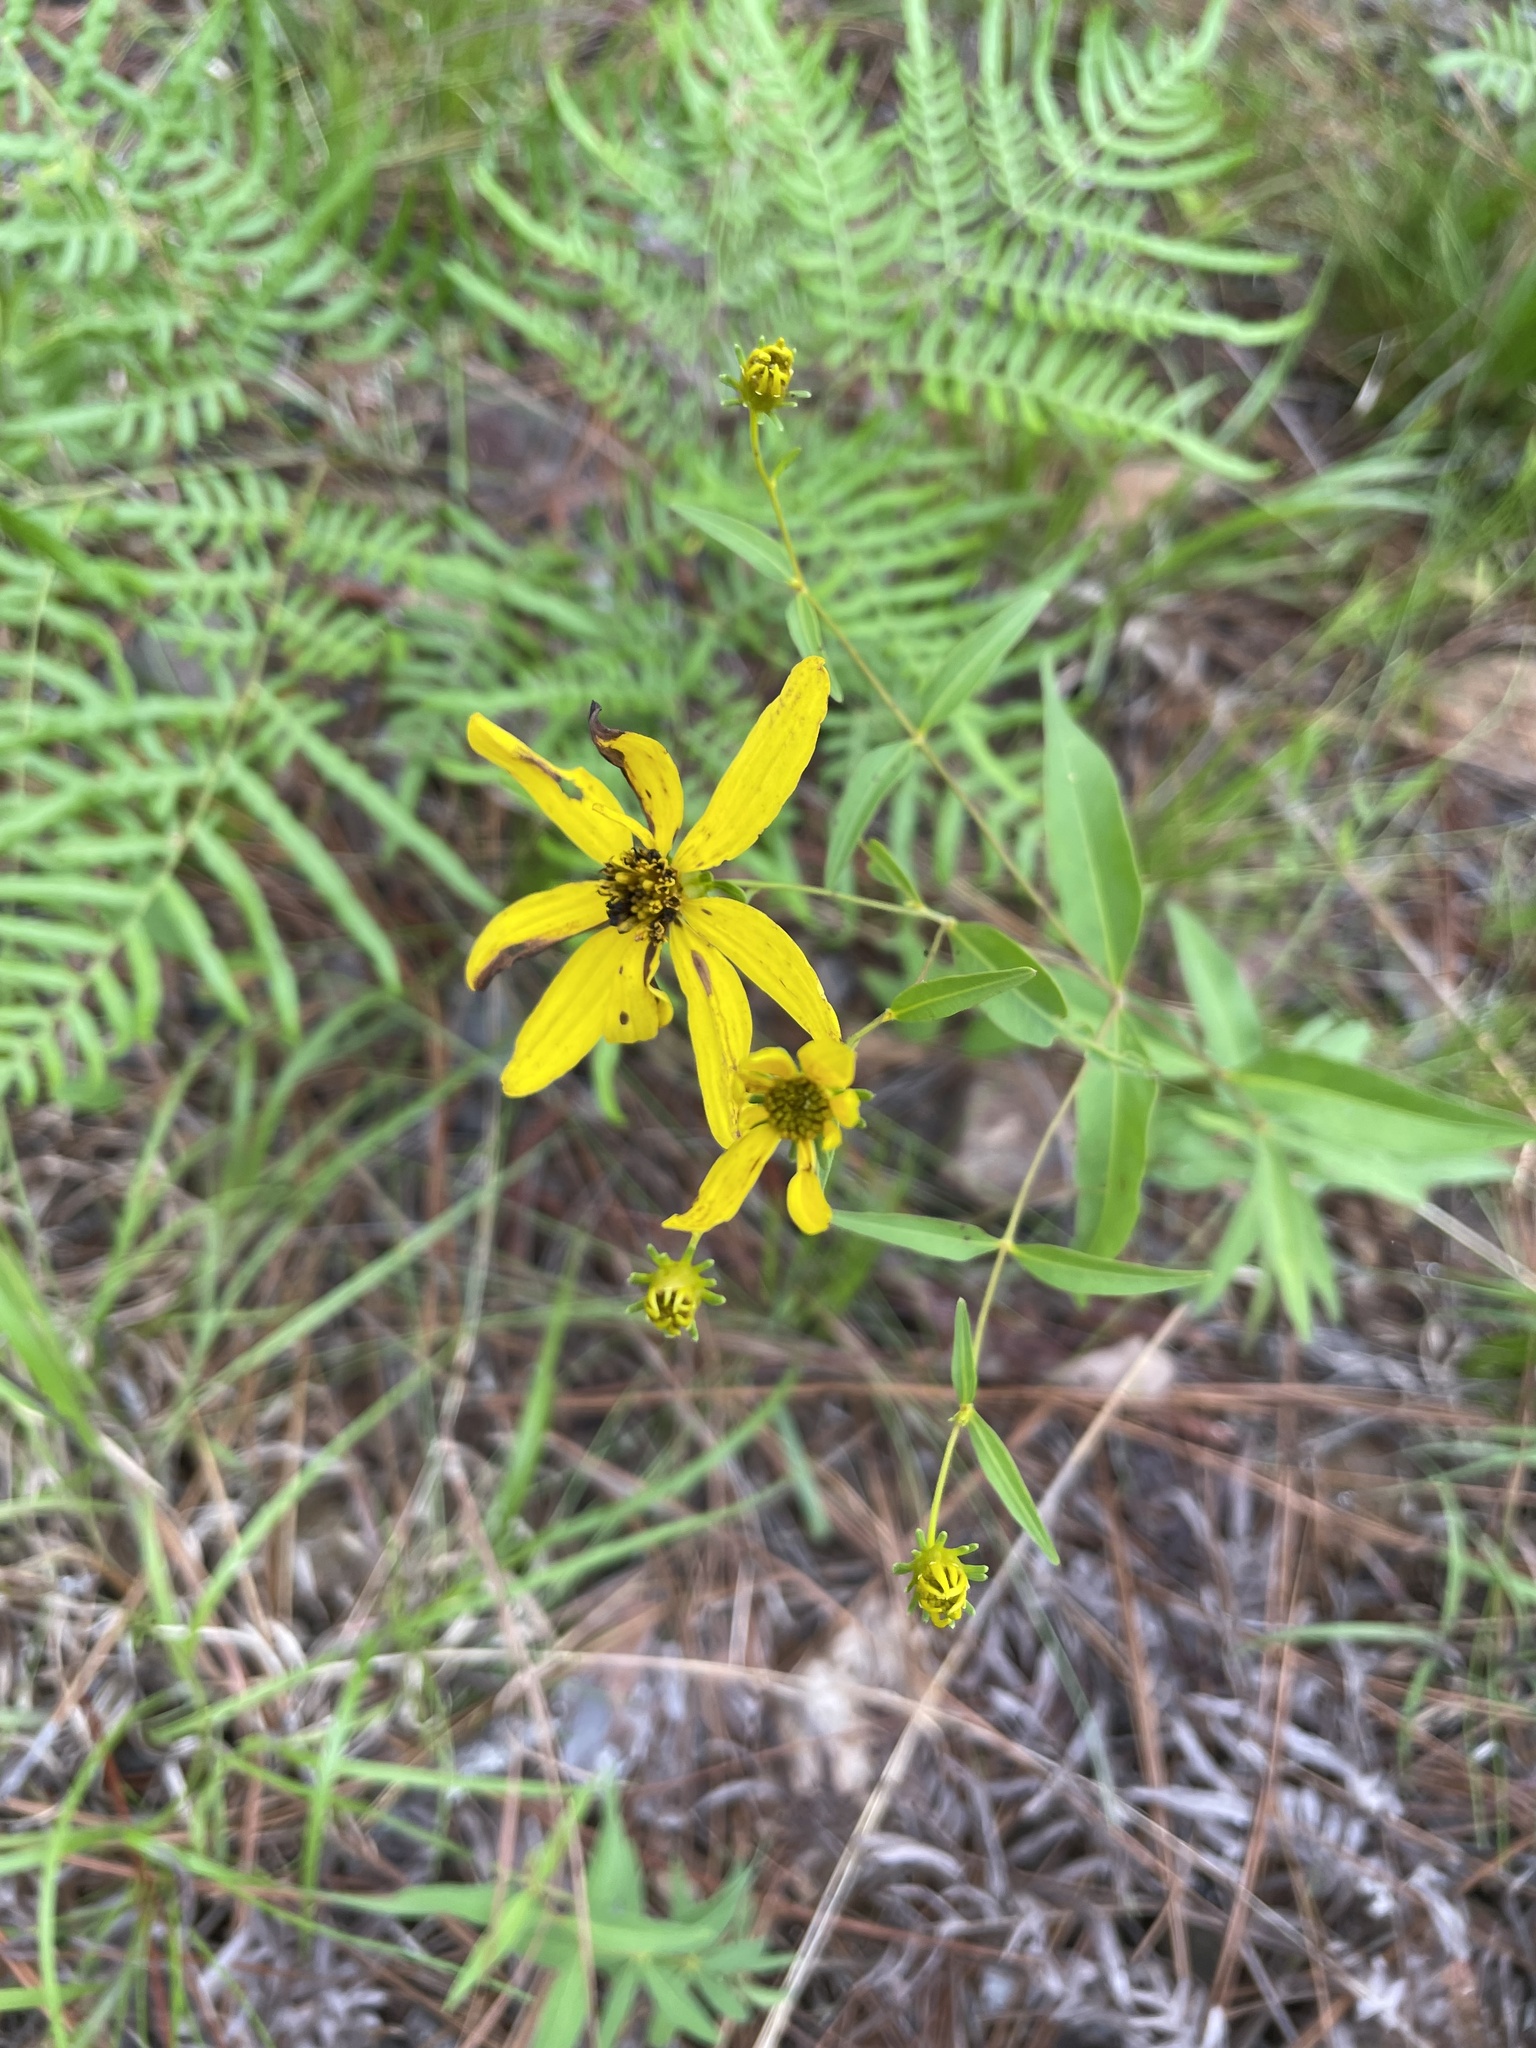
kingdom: Plantae
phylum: Tracheophyta
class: Magnoliopsida
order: Asterales
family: Asteraceae
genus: Coreopsis
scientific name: Coreopsis major
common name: Forest tickseed
